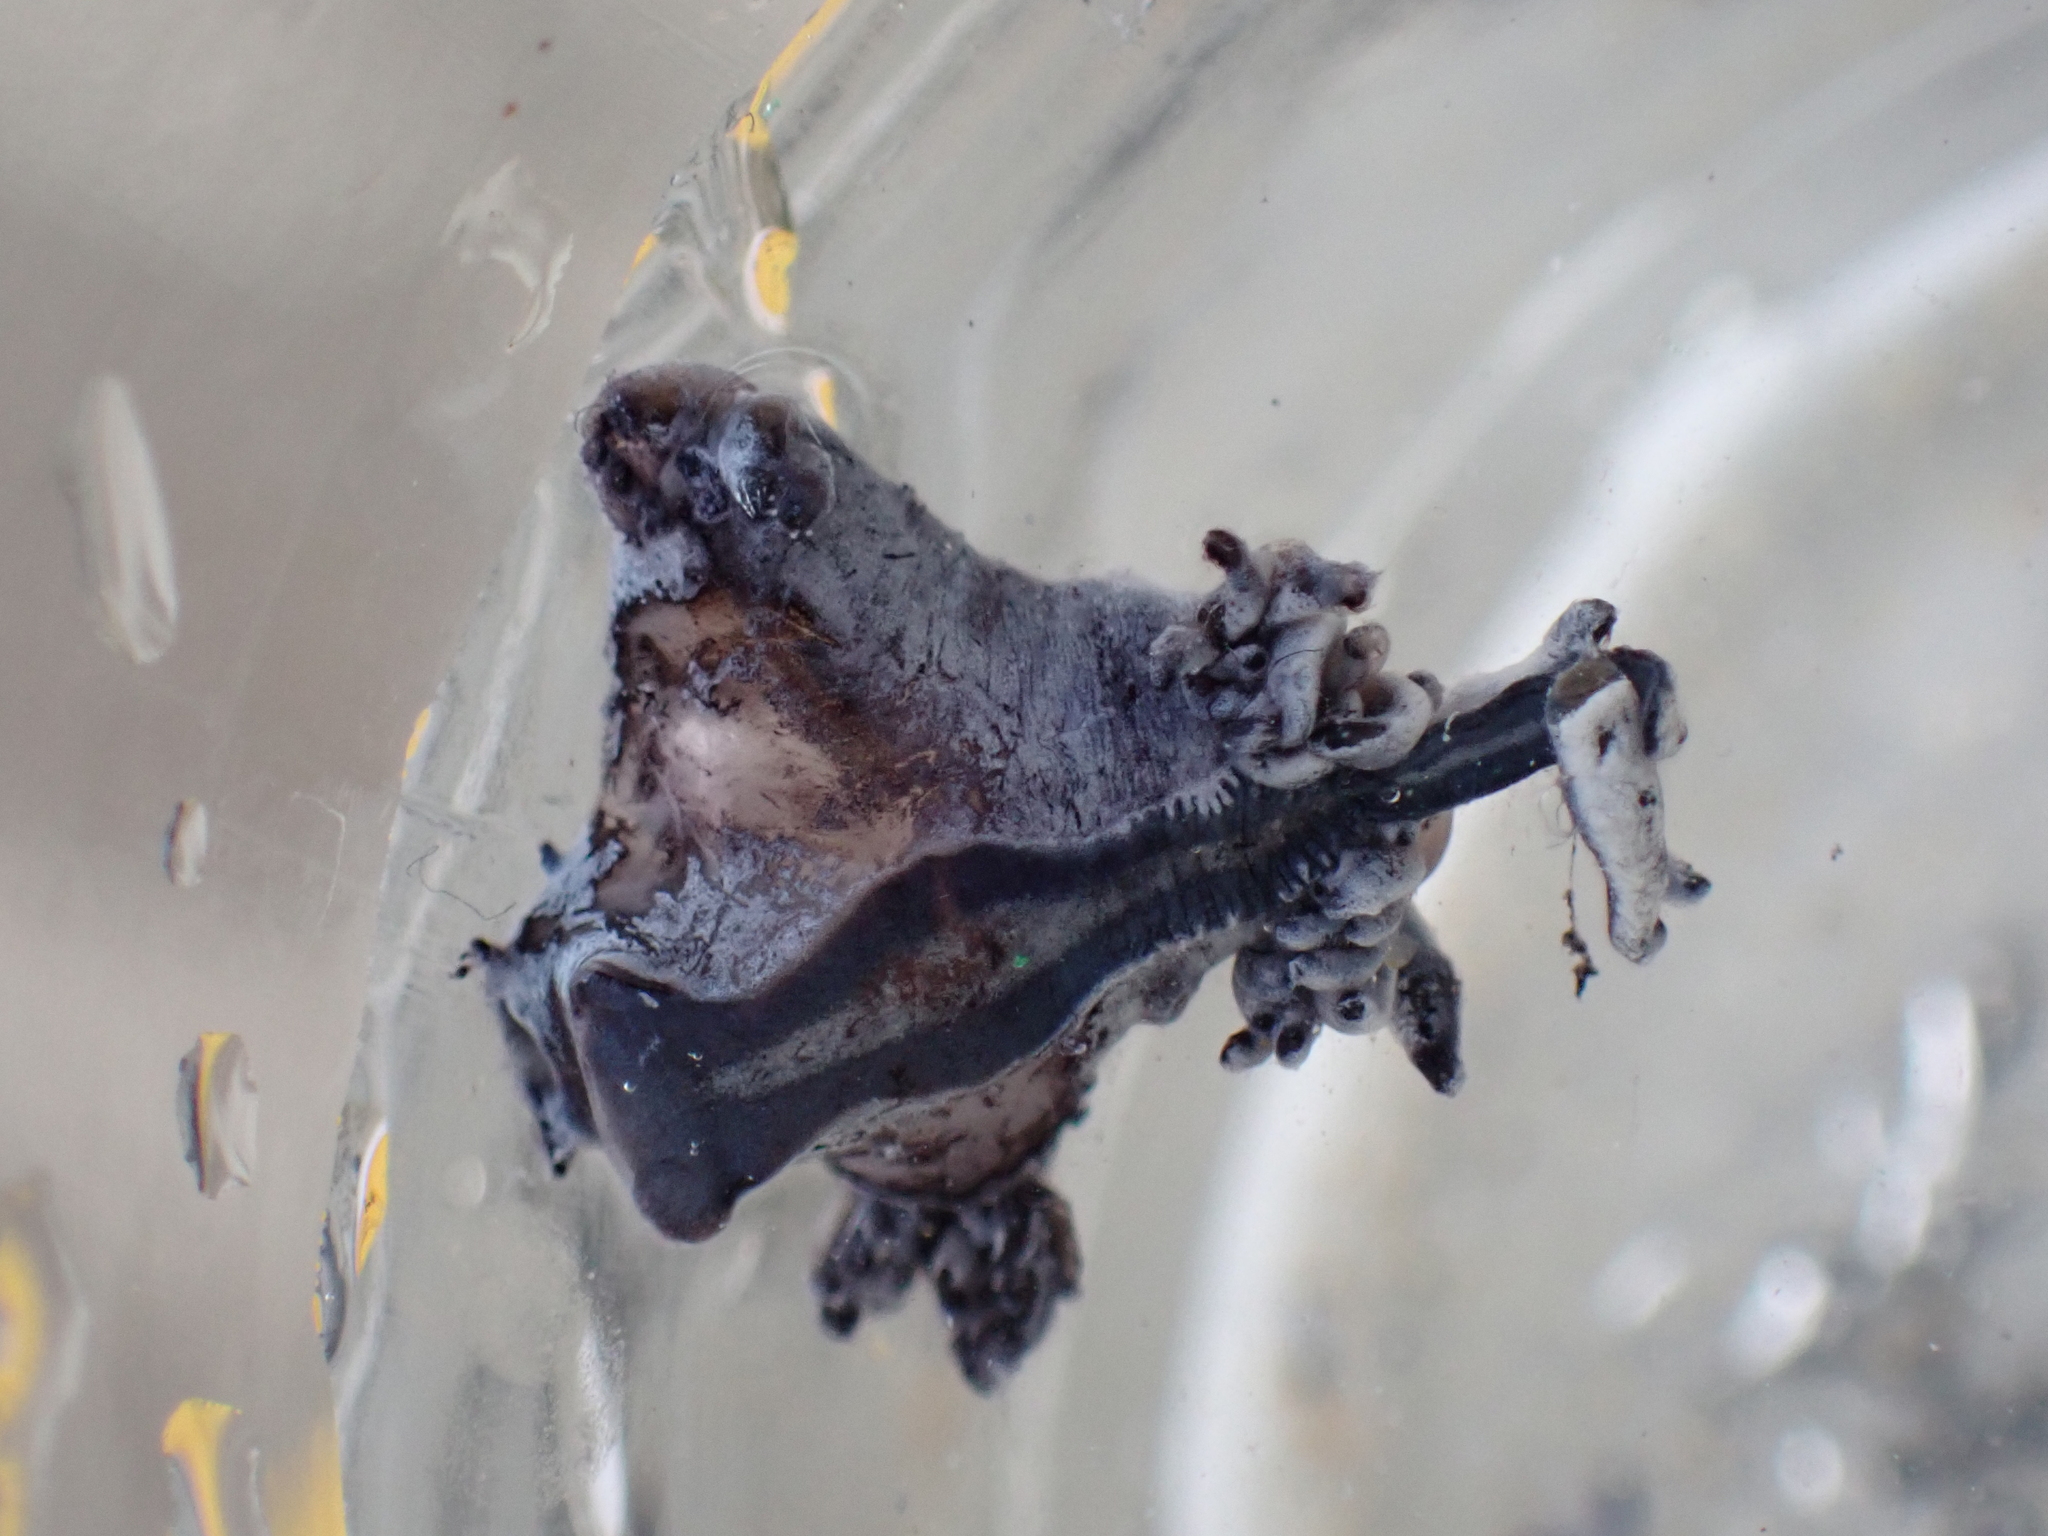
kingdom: Animalia
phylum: Mollusca
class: Gastropoda
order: Nudibranchia
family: Glaucidae
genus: Glaucus
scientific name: Glaucus atlanticus
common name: Purple ocean slug
